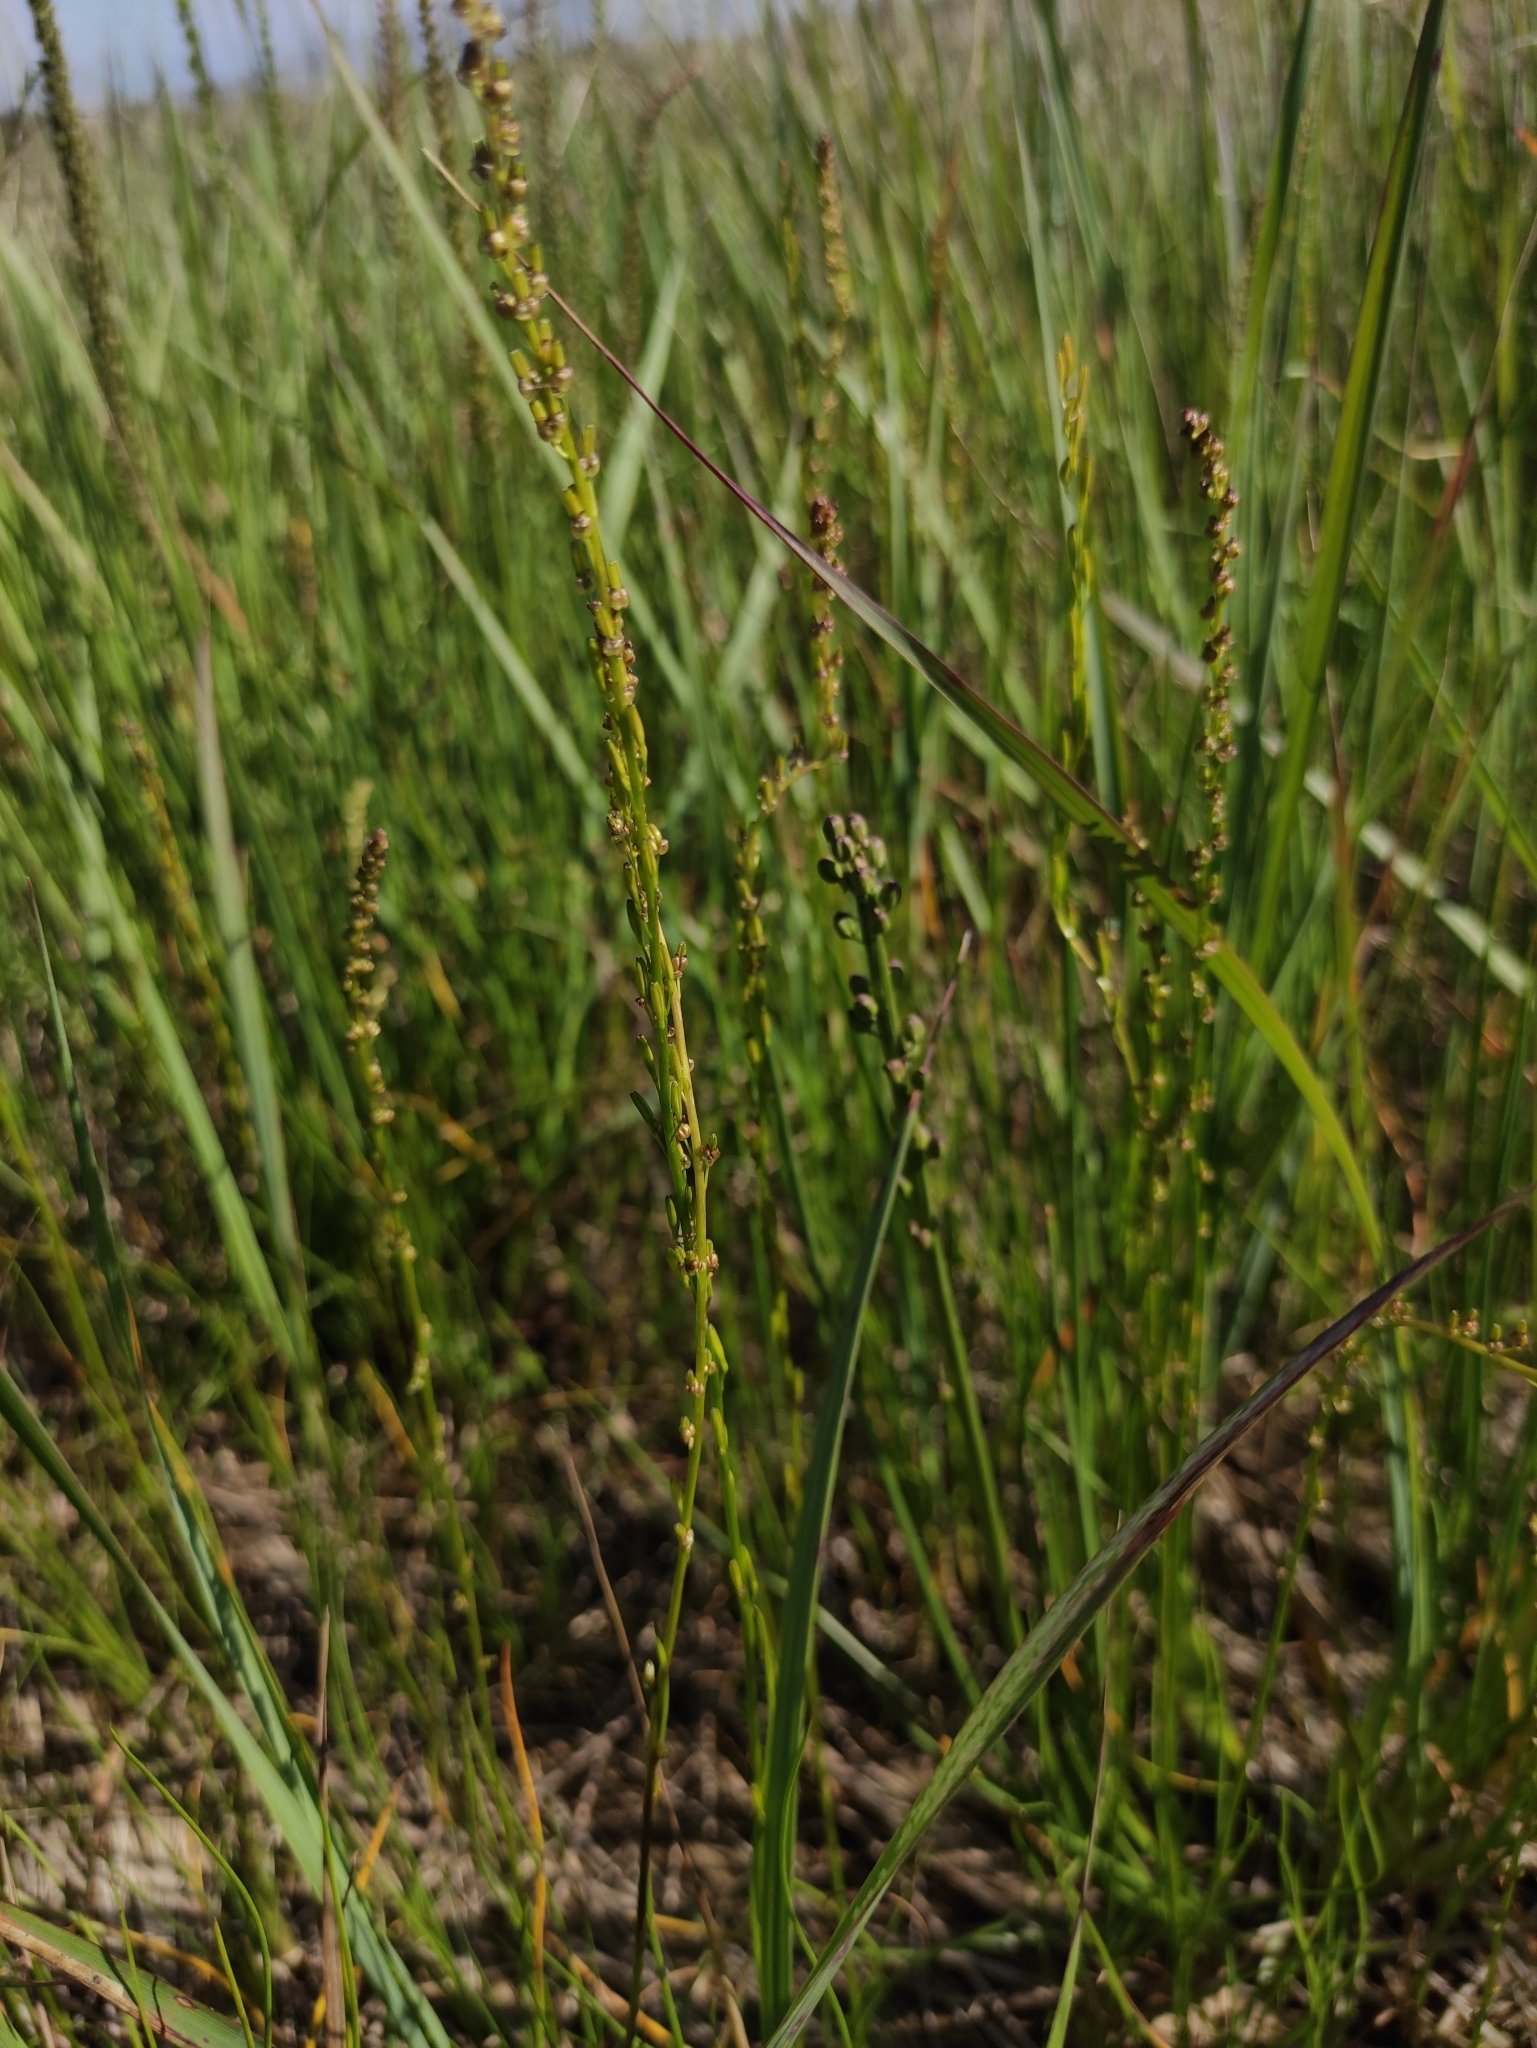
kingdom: Plantae
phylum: Tracheophyta
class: Liliopsida
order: Alismatales
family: Juncaginaceae
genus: Triglochin
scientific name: Triglochin palustris
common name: Marsh arrowgrass
